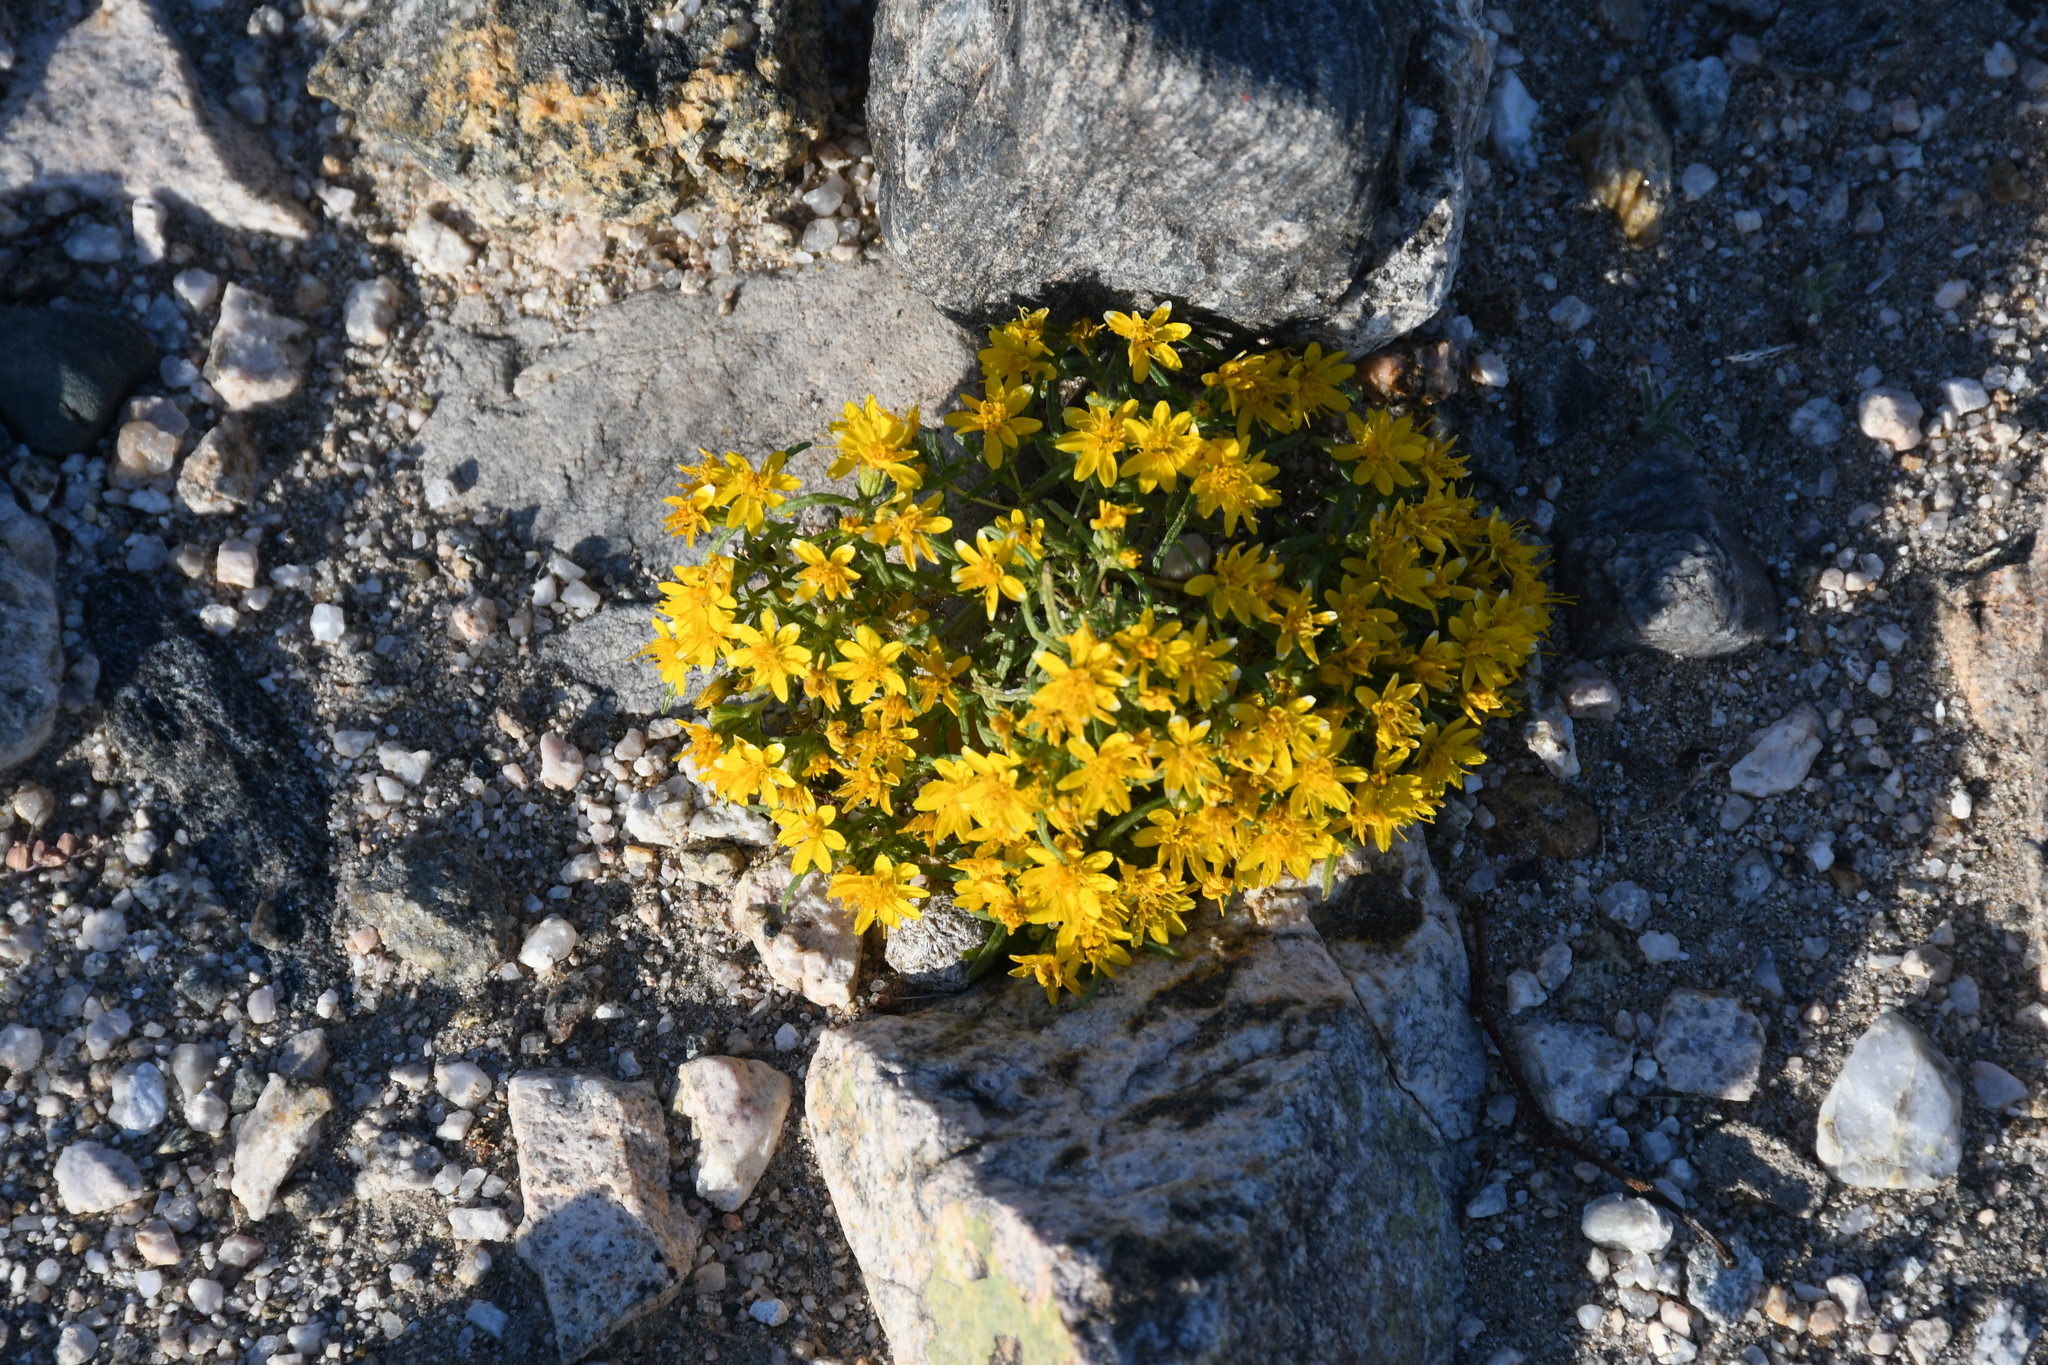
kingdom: Plantae
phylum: Tracheophyta
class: Magnoliopsida
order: Asterales
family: Asteraceae
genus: Pectis
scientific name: Pectis papposa
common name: Many-bristle chinchweed
